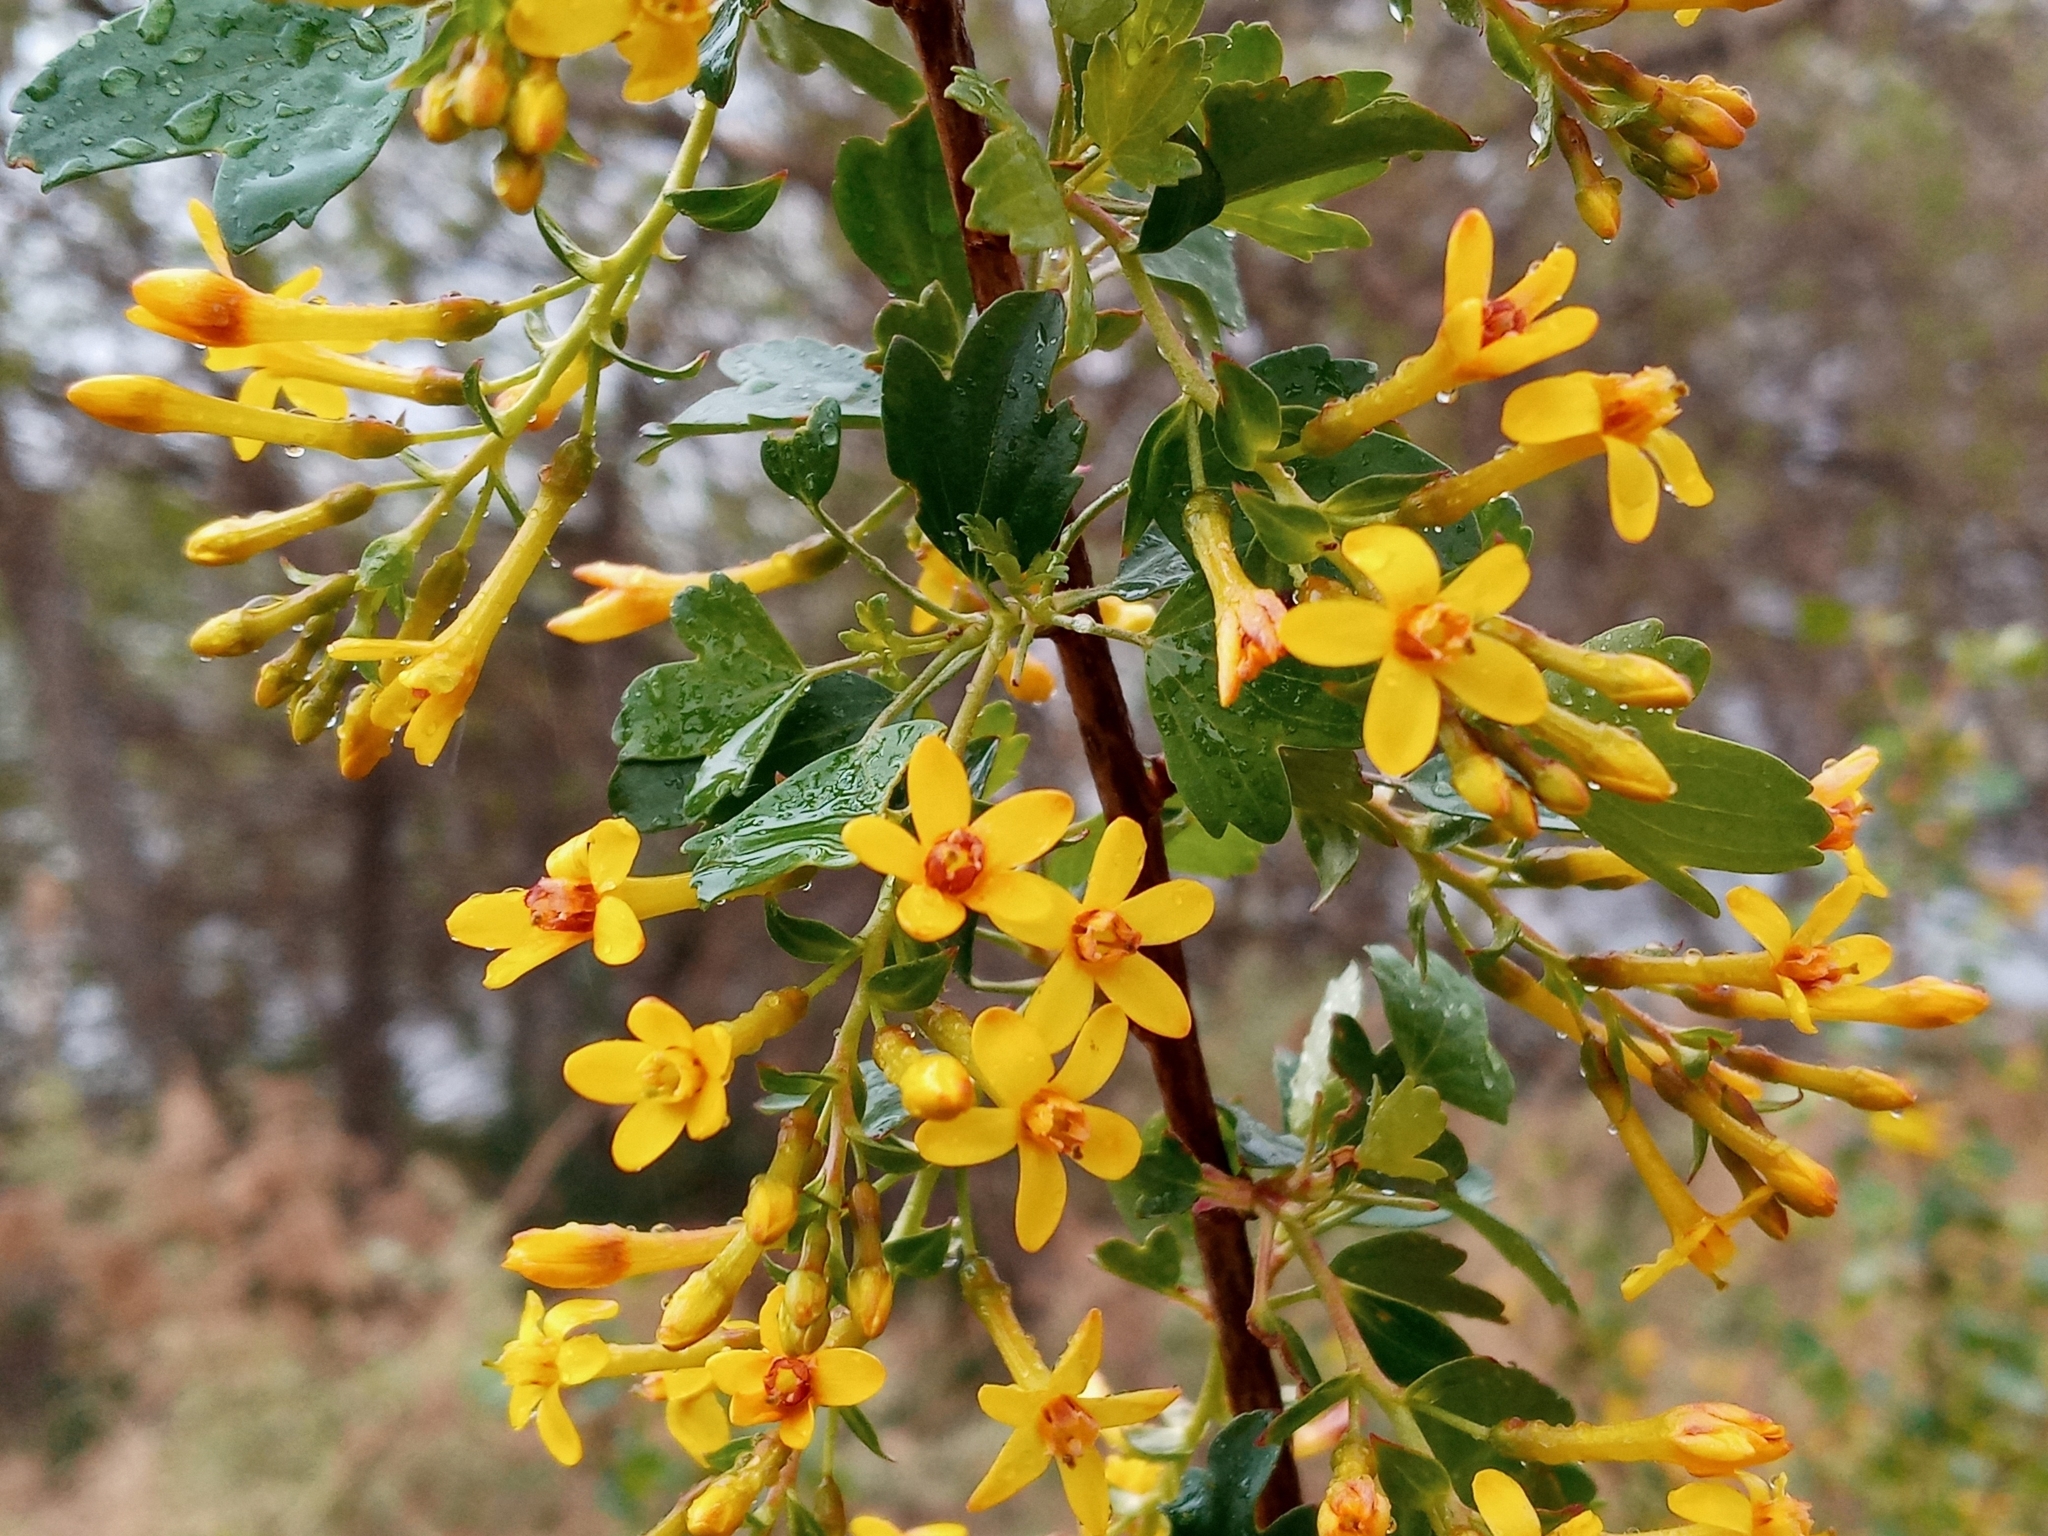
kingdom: Plantae
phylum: Tracheophyta
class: Magnoliopsida
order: Saxifragales
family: Grossulariaceae
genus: Ribes
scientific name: Ribes aureum
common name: Golden currant
